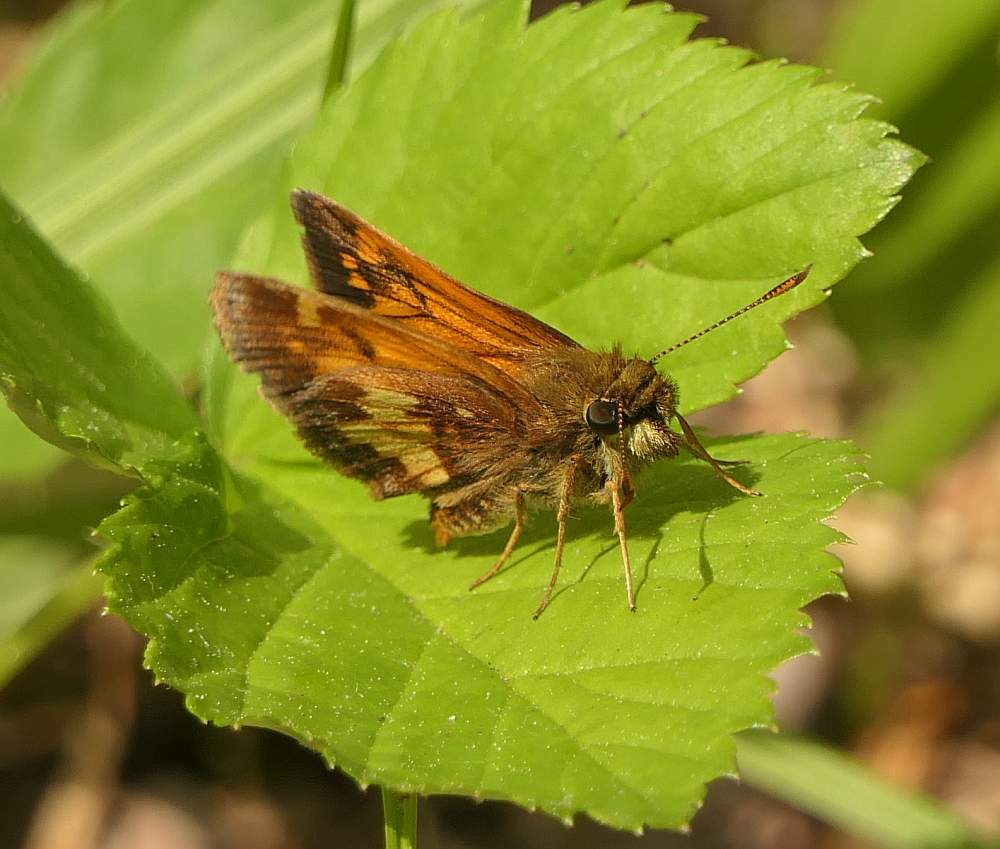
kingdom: Animalia
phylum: Arthropoda
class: Insecta
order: Lepidoptera
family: Hesperiidae
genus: Lon
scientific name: Lon hobomok
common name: Hobomok skipper
